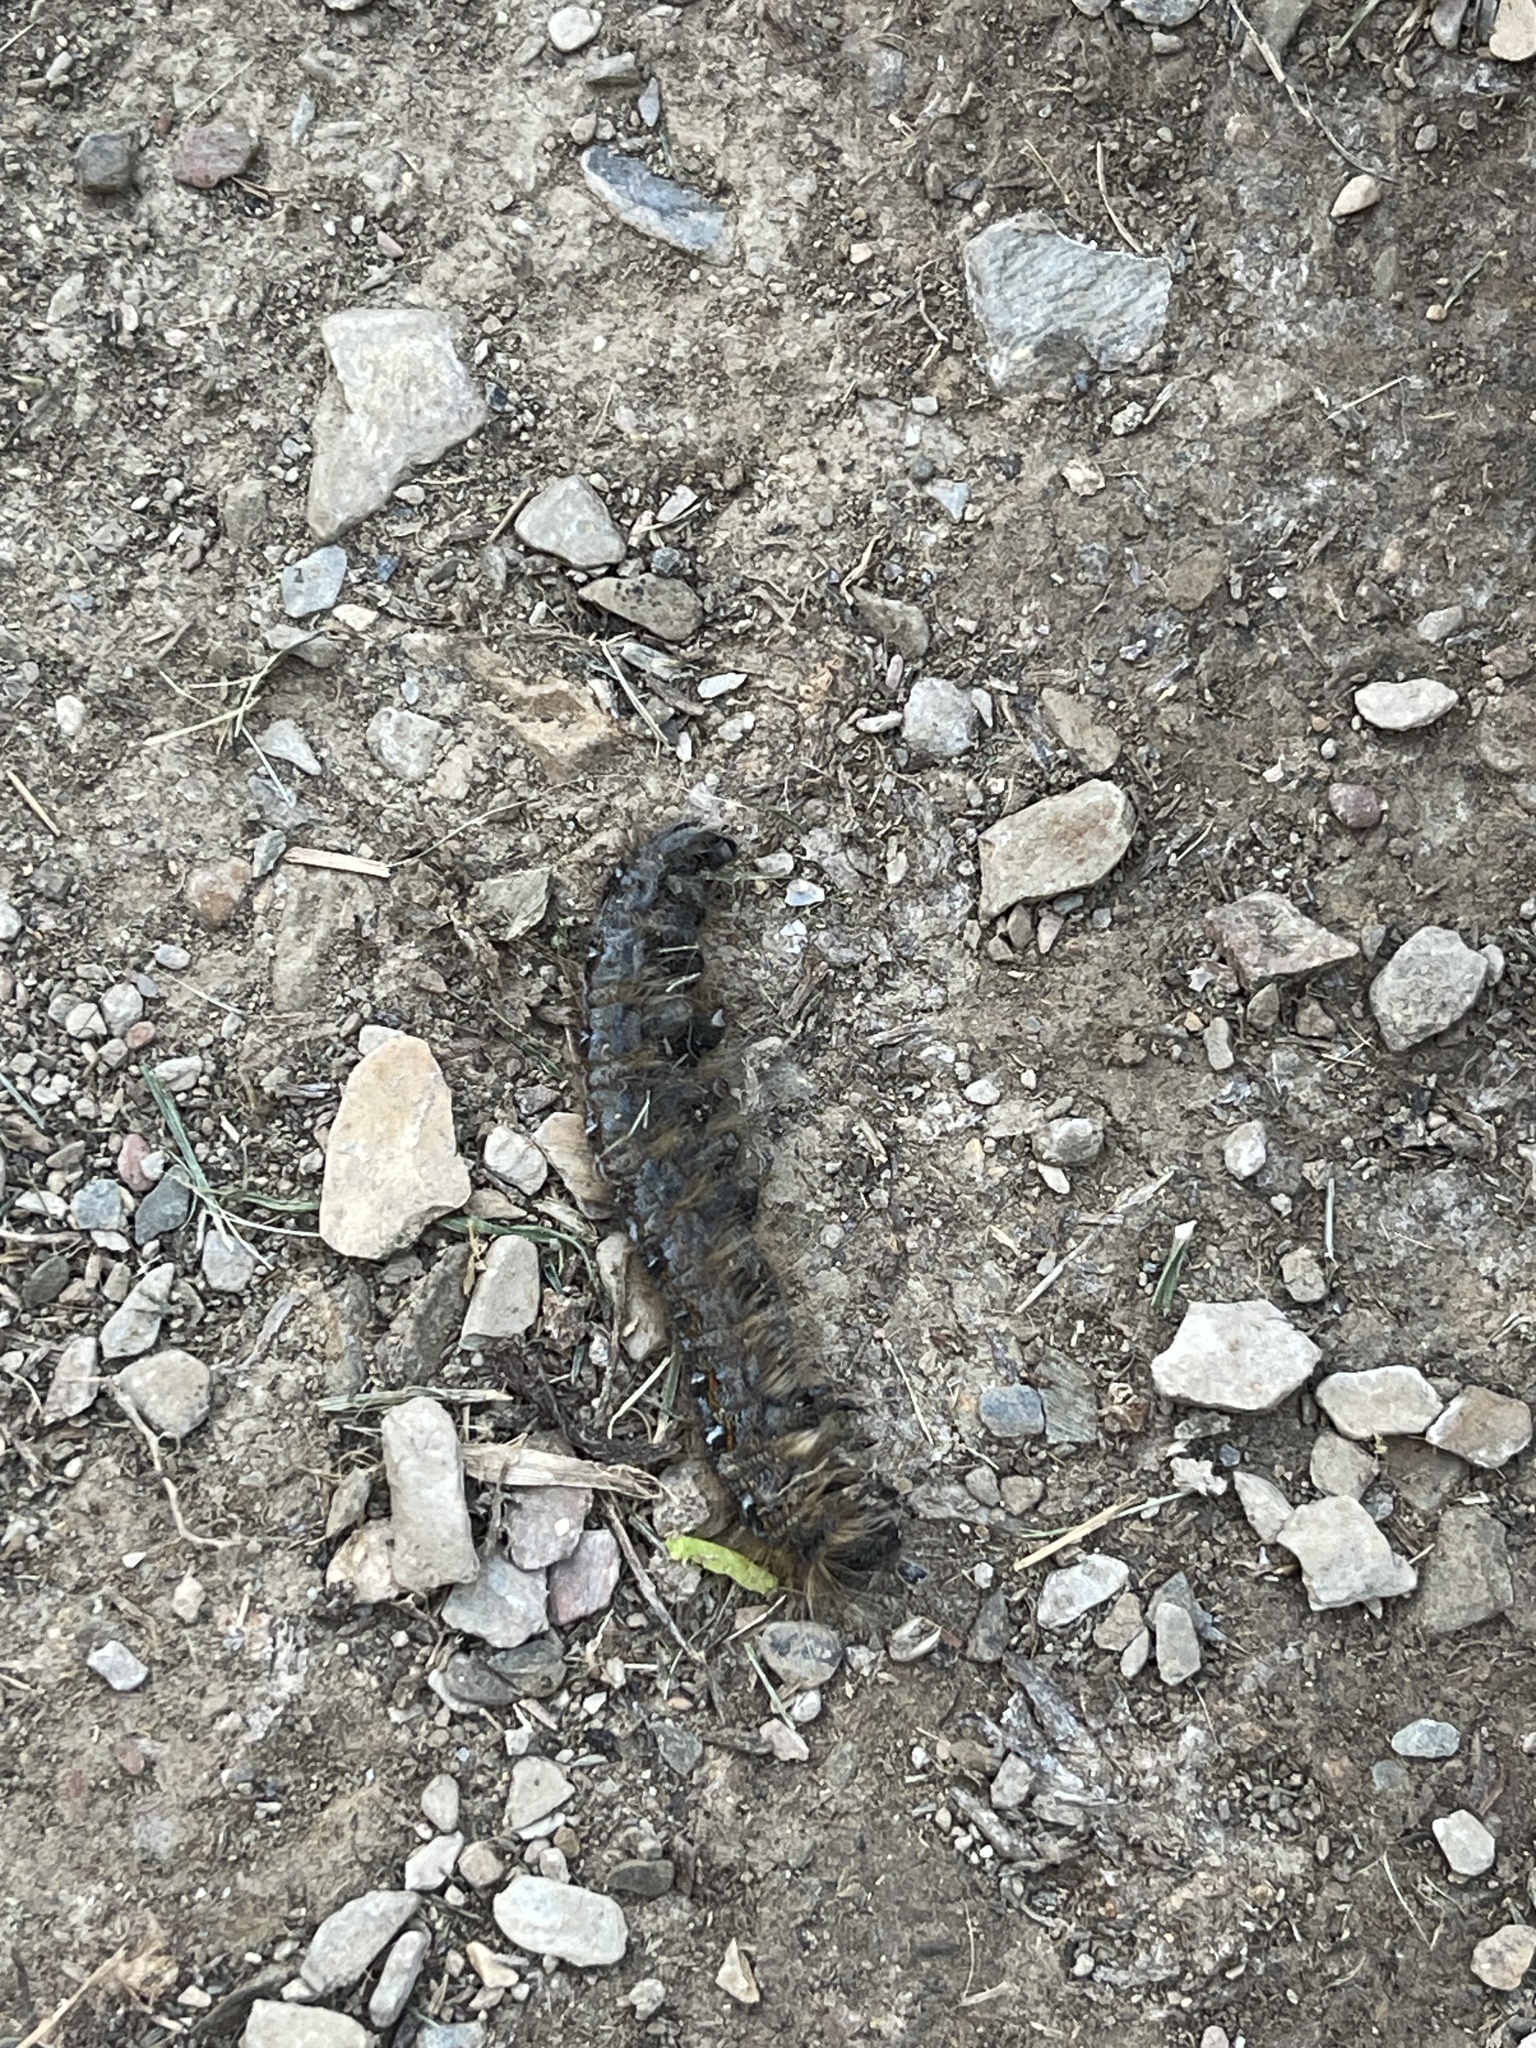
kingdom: Animalia
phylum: Arthropoda
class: Insecta
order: Lepidoptera
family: Lasiocampidae
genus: Malacosoma
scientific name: Malacosoma americana
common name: Eastern tent caterpillar moth
